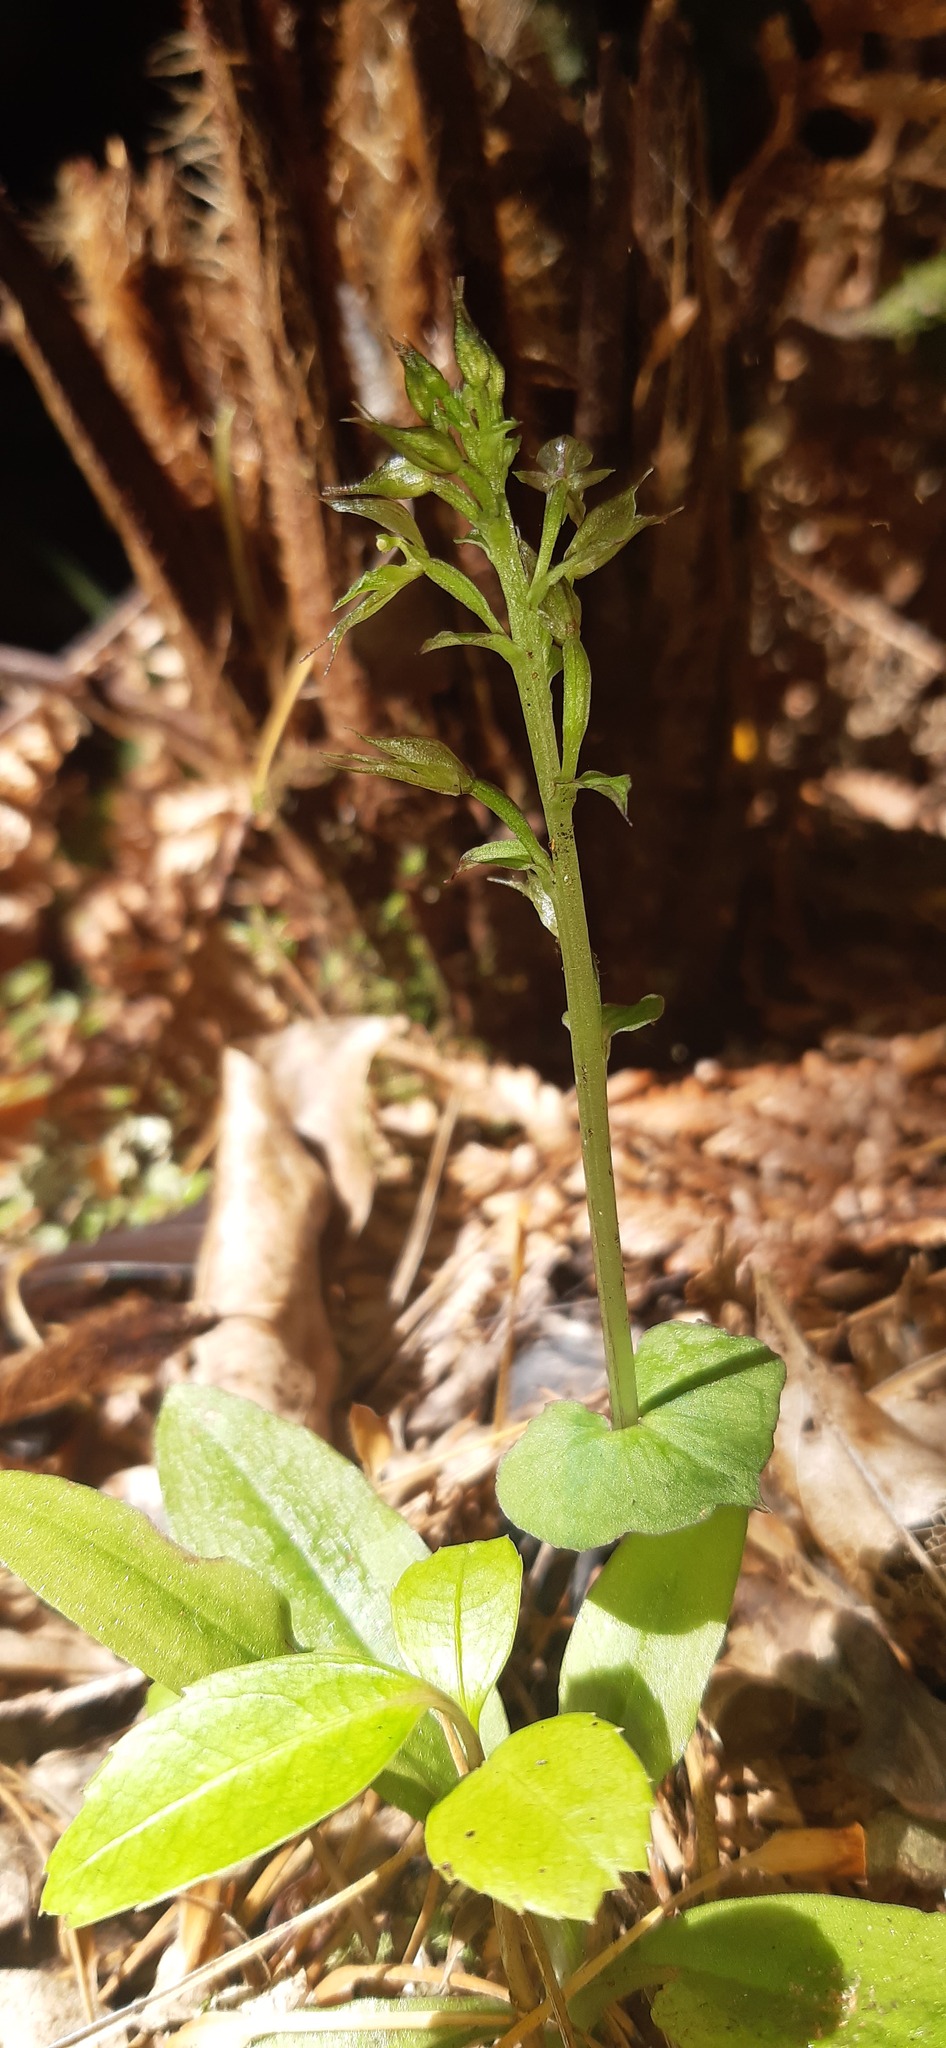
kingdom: Plantae
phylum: Tracheophyta
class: Liliopsida
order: Asparagales
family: Orchidaceae
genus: Acianthus
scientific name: Acianthus sinclairii
